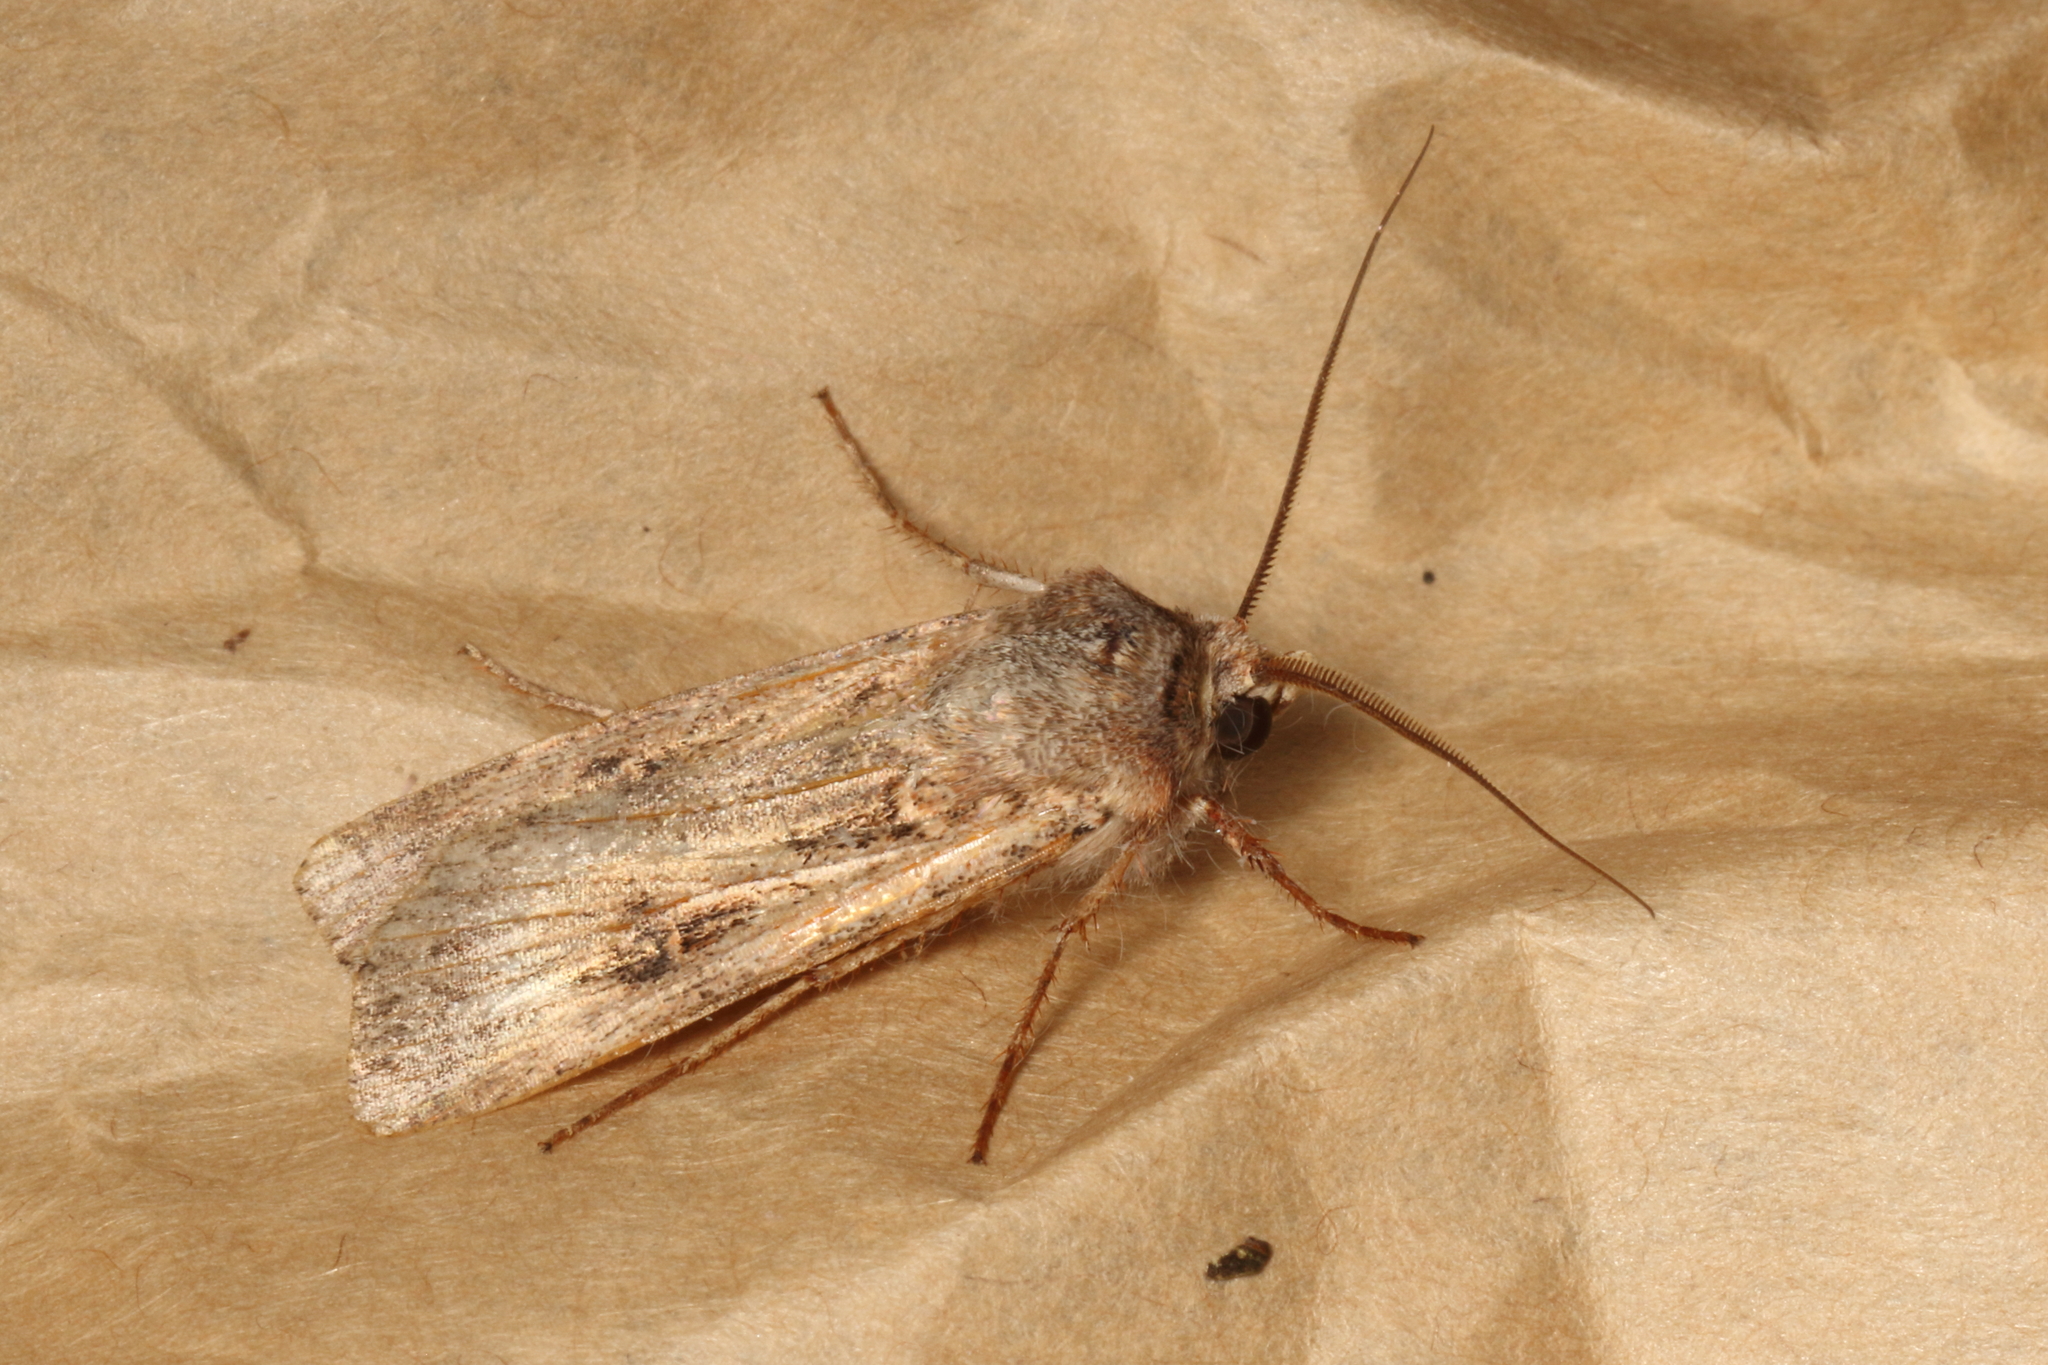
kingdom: Animalia
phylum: Arthropoda
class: Insecta
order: Lepidoptera
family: Noctuidae
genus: Agrotis
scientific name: Agrotis munda
